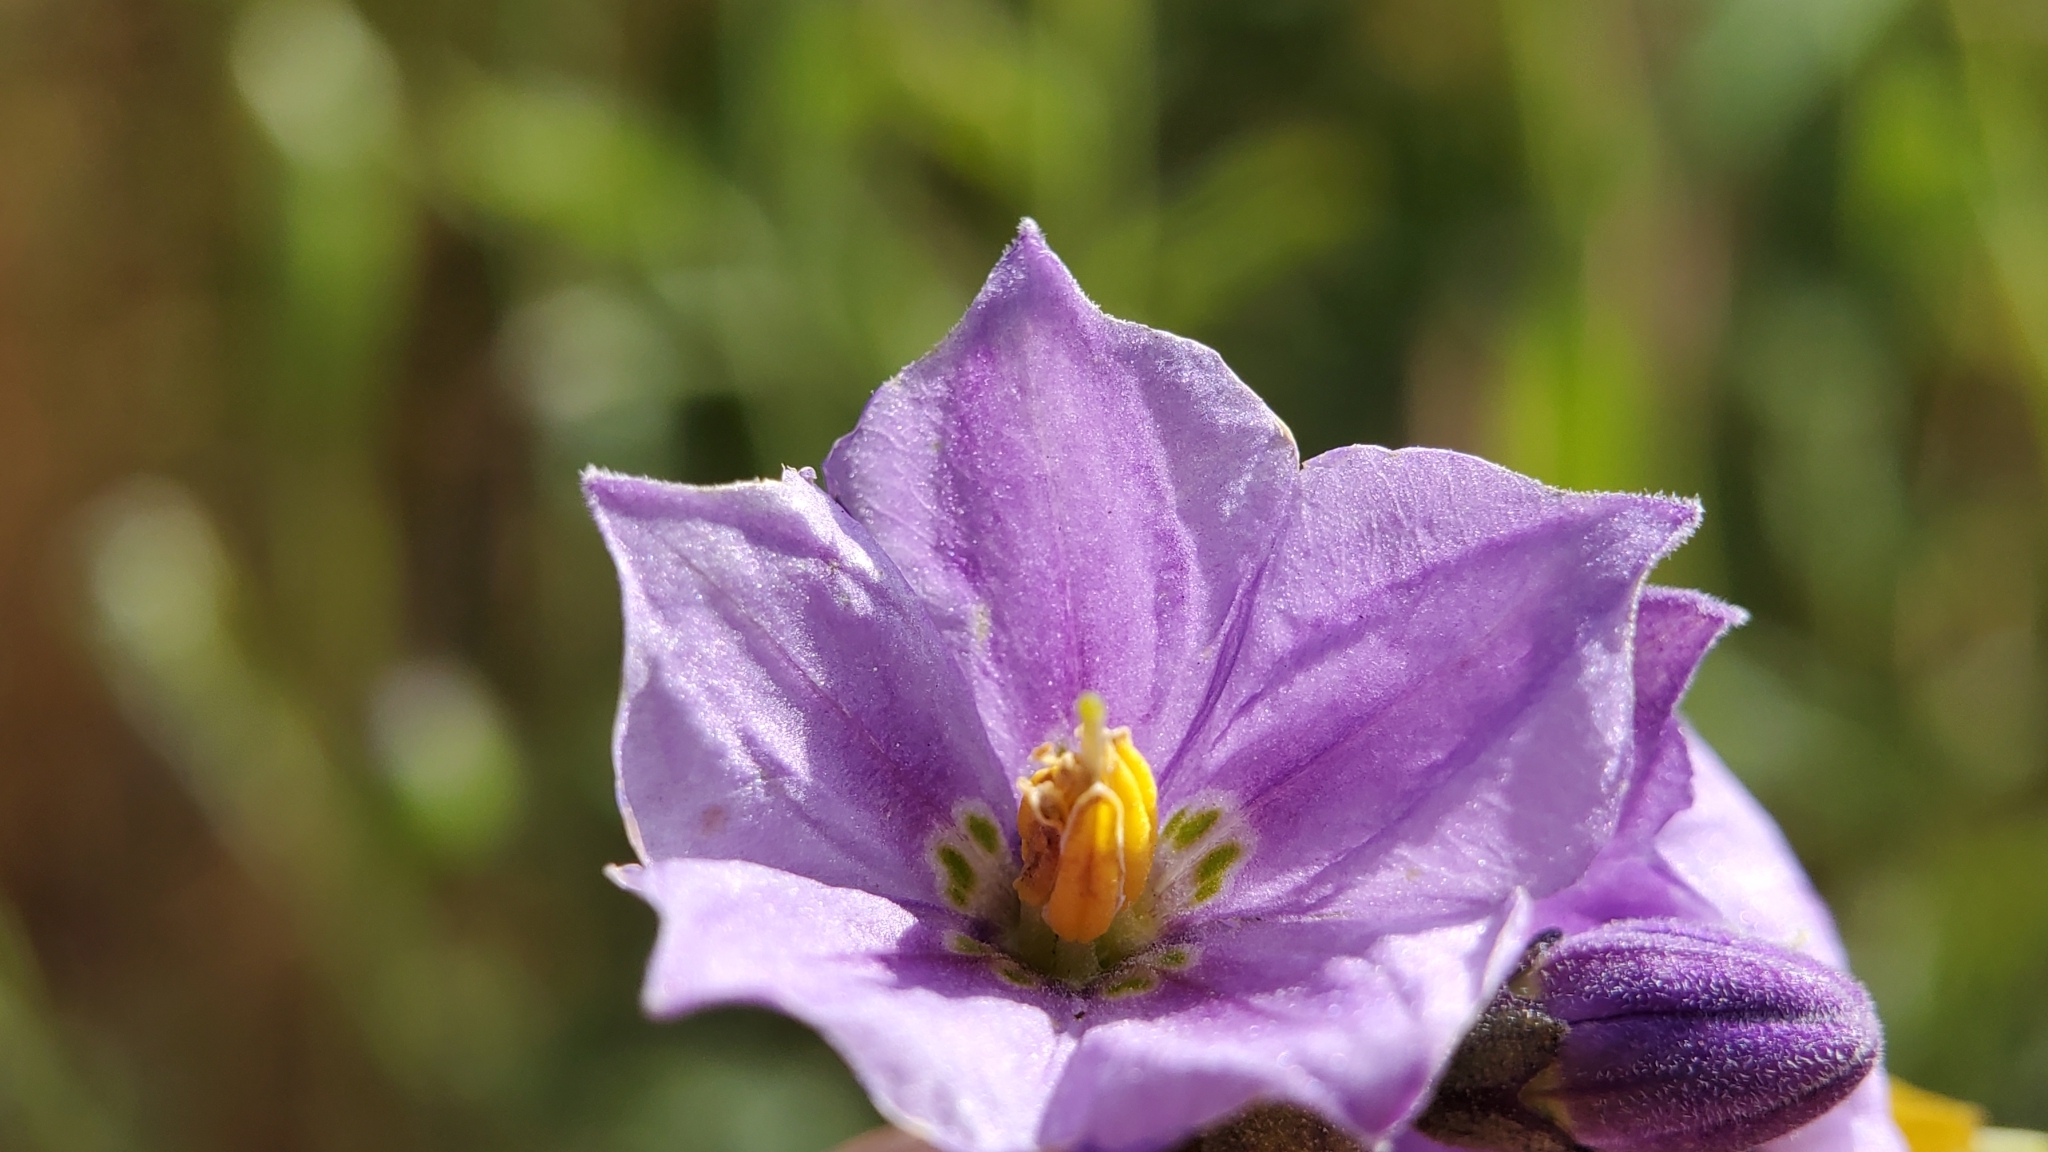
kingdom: Plantae
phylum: Tracheophyta
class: Magnoliopsida
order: Solanales
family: Solanaceae
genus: Solanum
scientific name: Solanum umbelliferum
